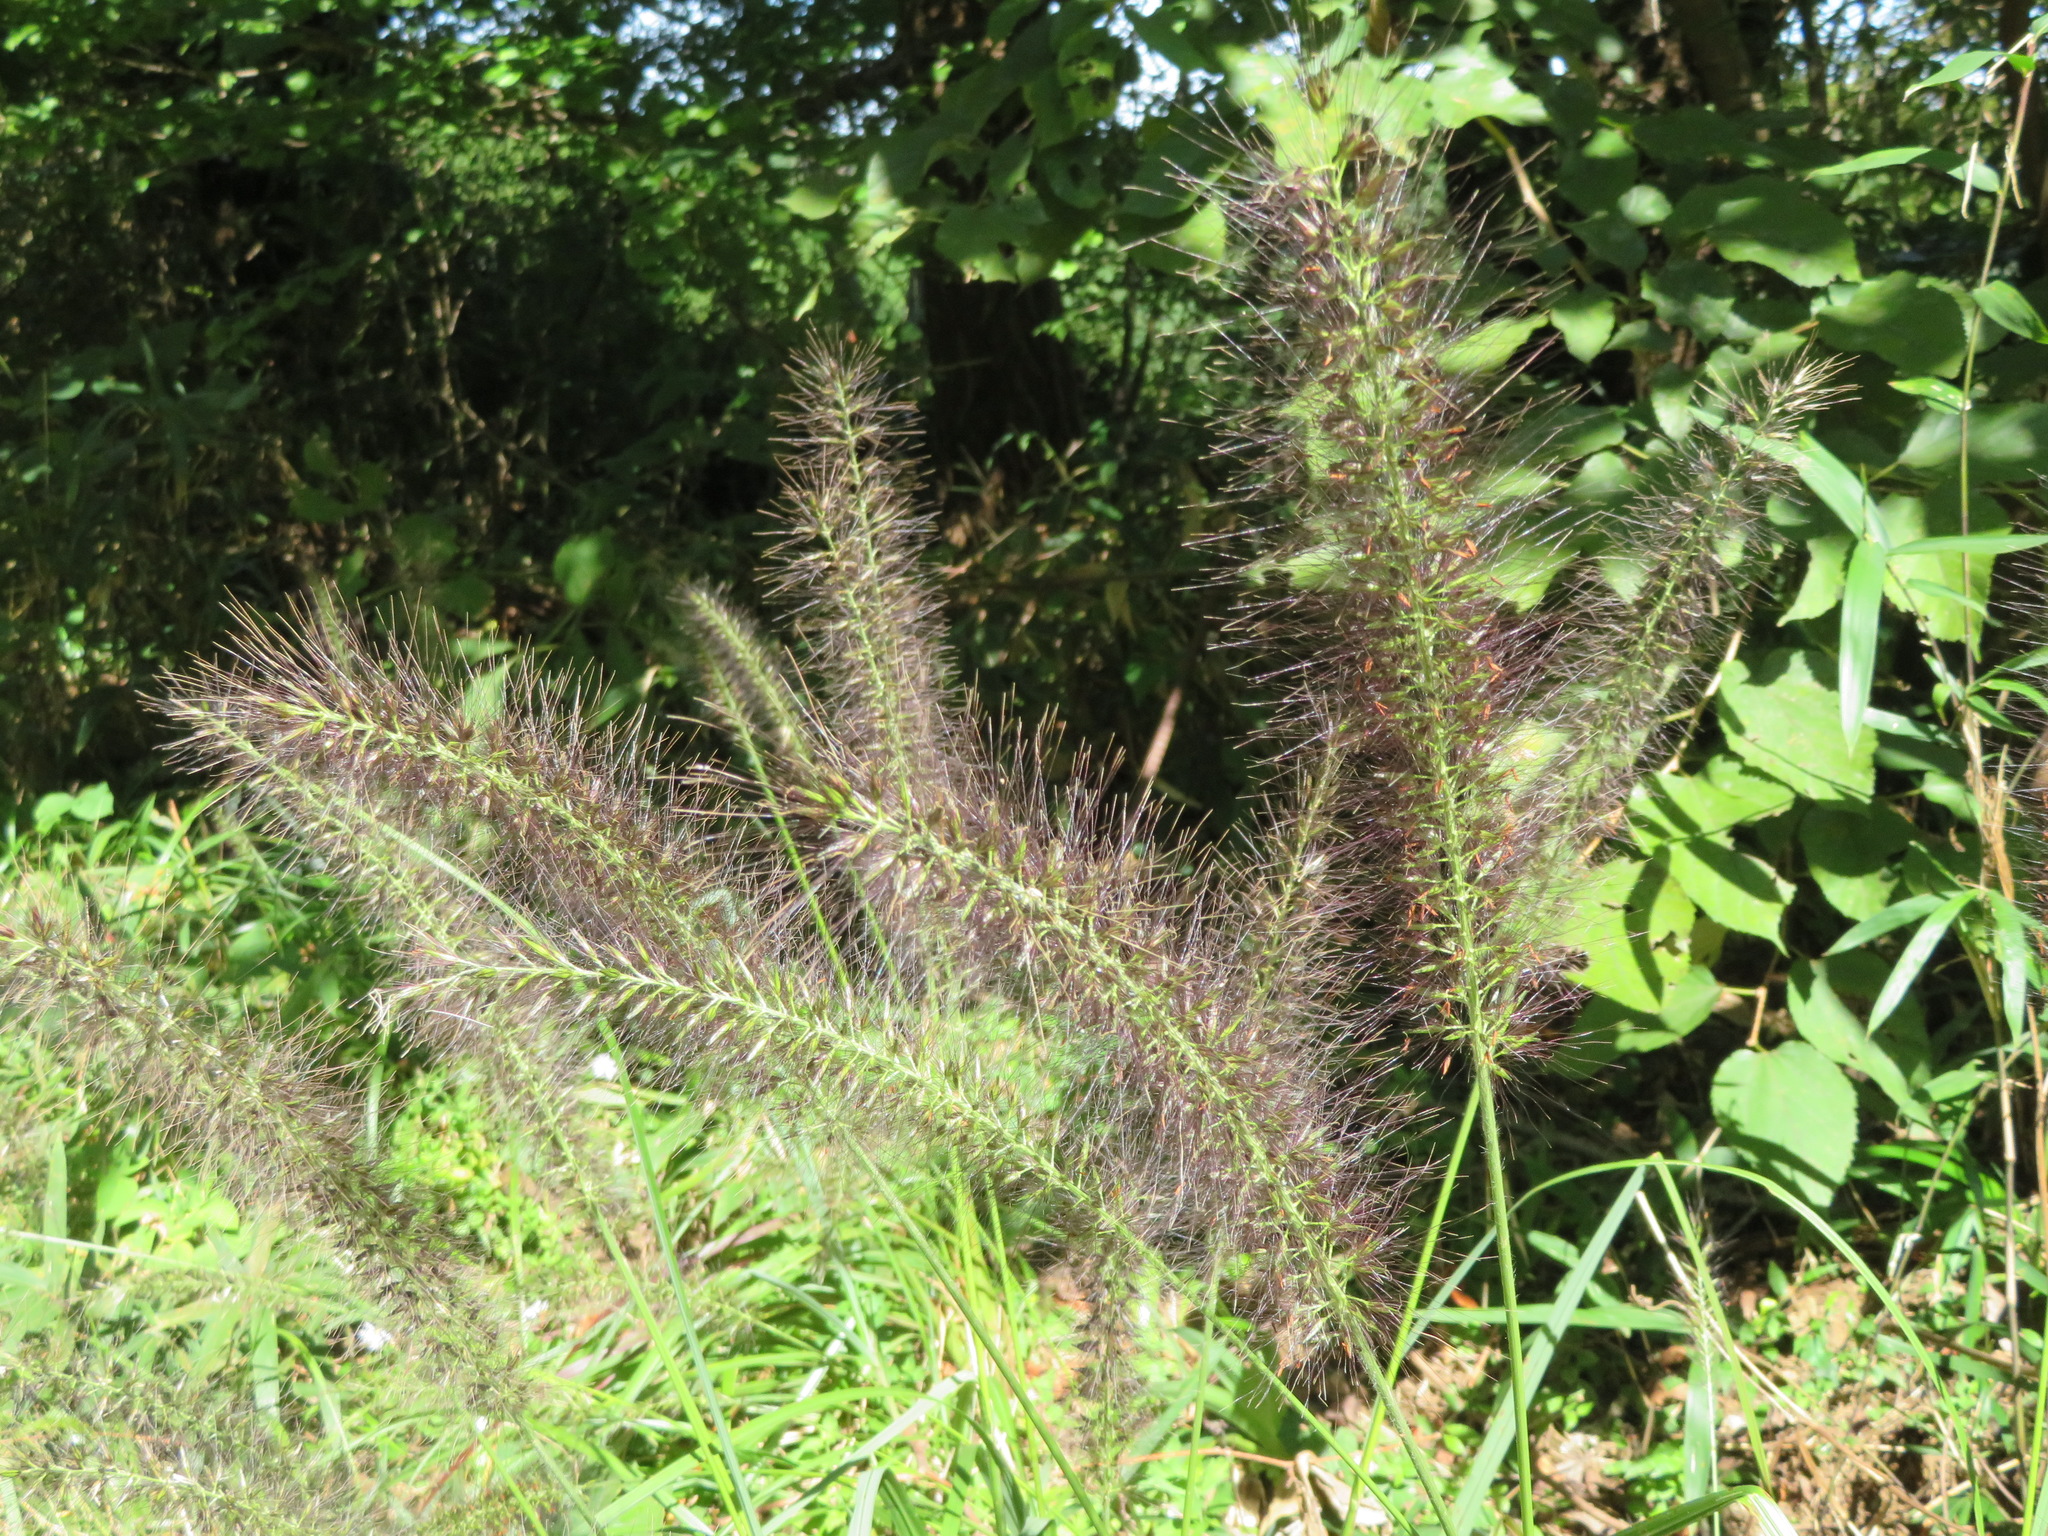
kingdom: Plantae
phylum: Tracheophyta
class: Liliopsida
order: Poales
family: Poaceae
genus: Cenchrus
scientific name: Cenchrus alopecuroides
